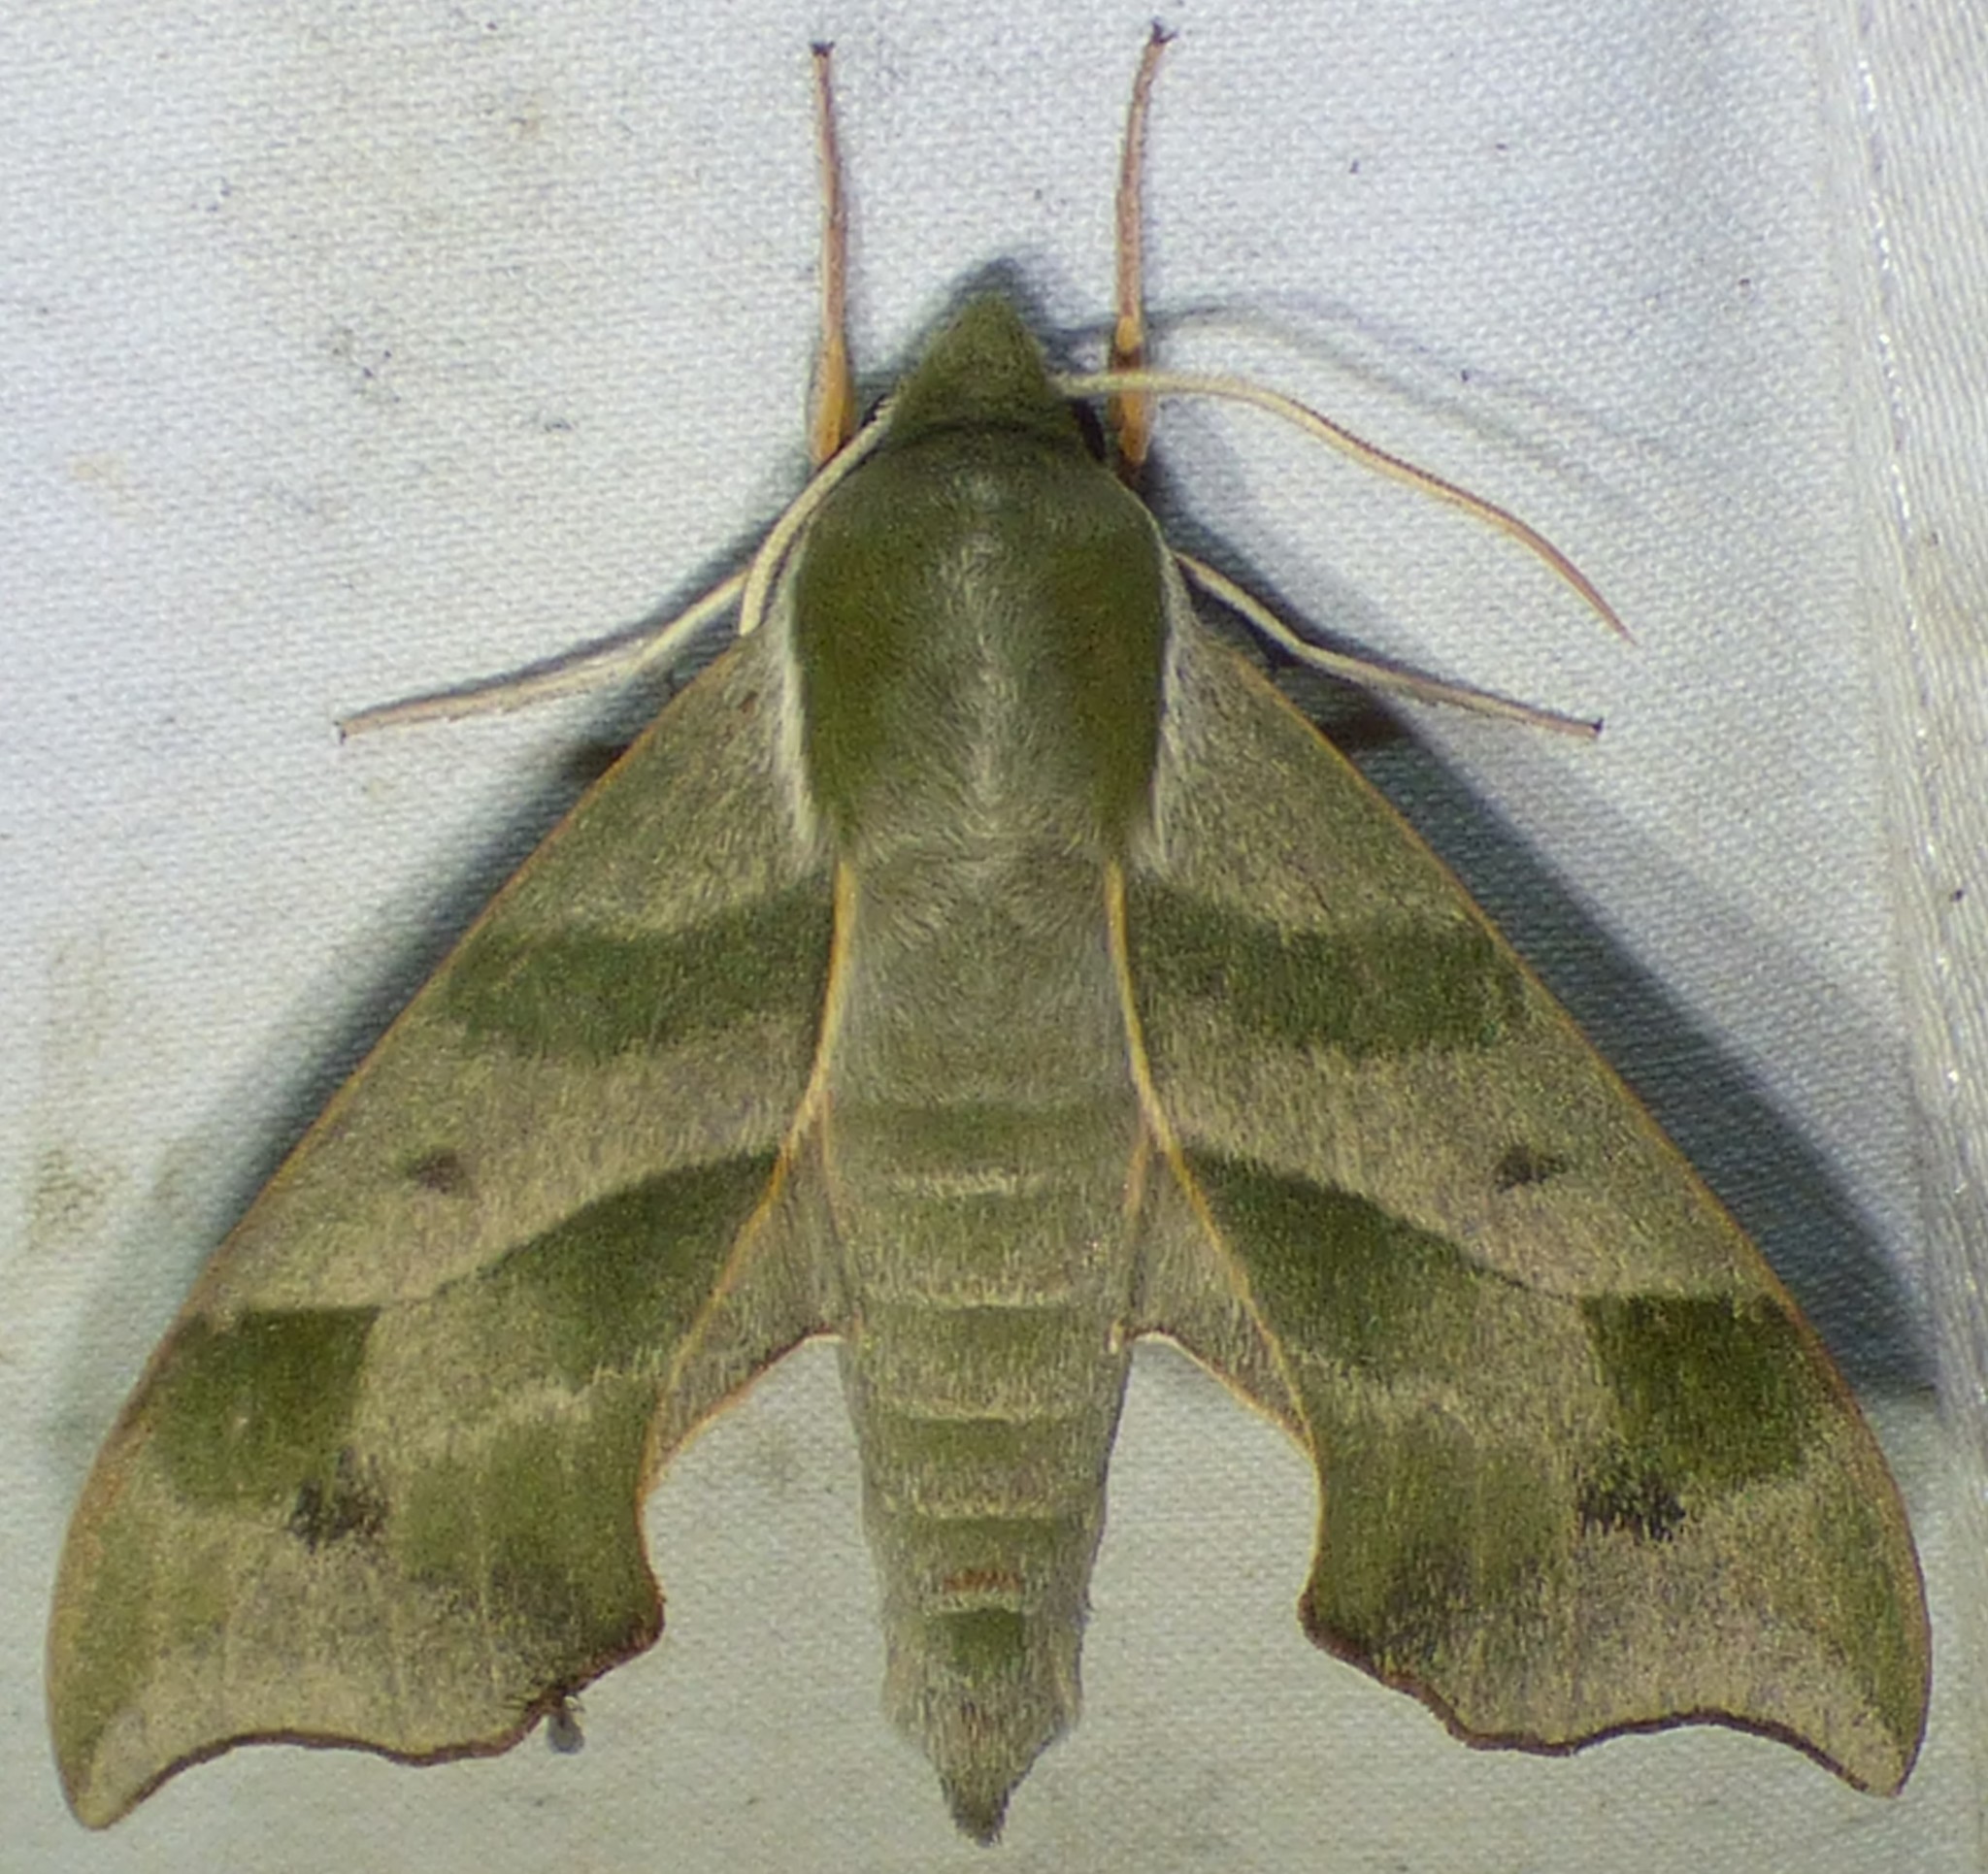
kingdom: Animalia
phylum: Arthropoda
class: Insecta
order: Lepidoptera
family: Sphingidae
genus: Darapsa
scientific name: Darapsa myron
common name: Hog sphinx
